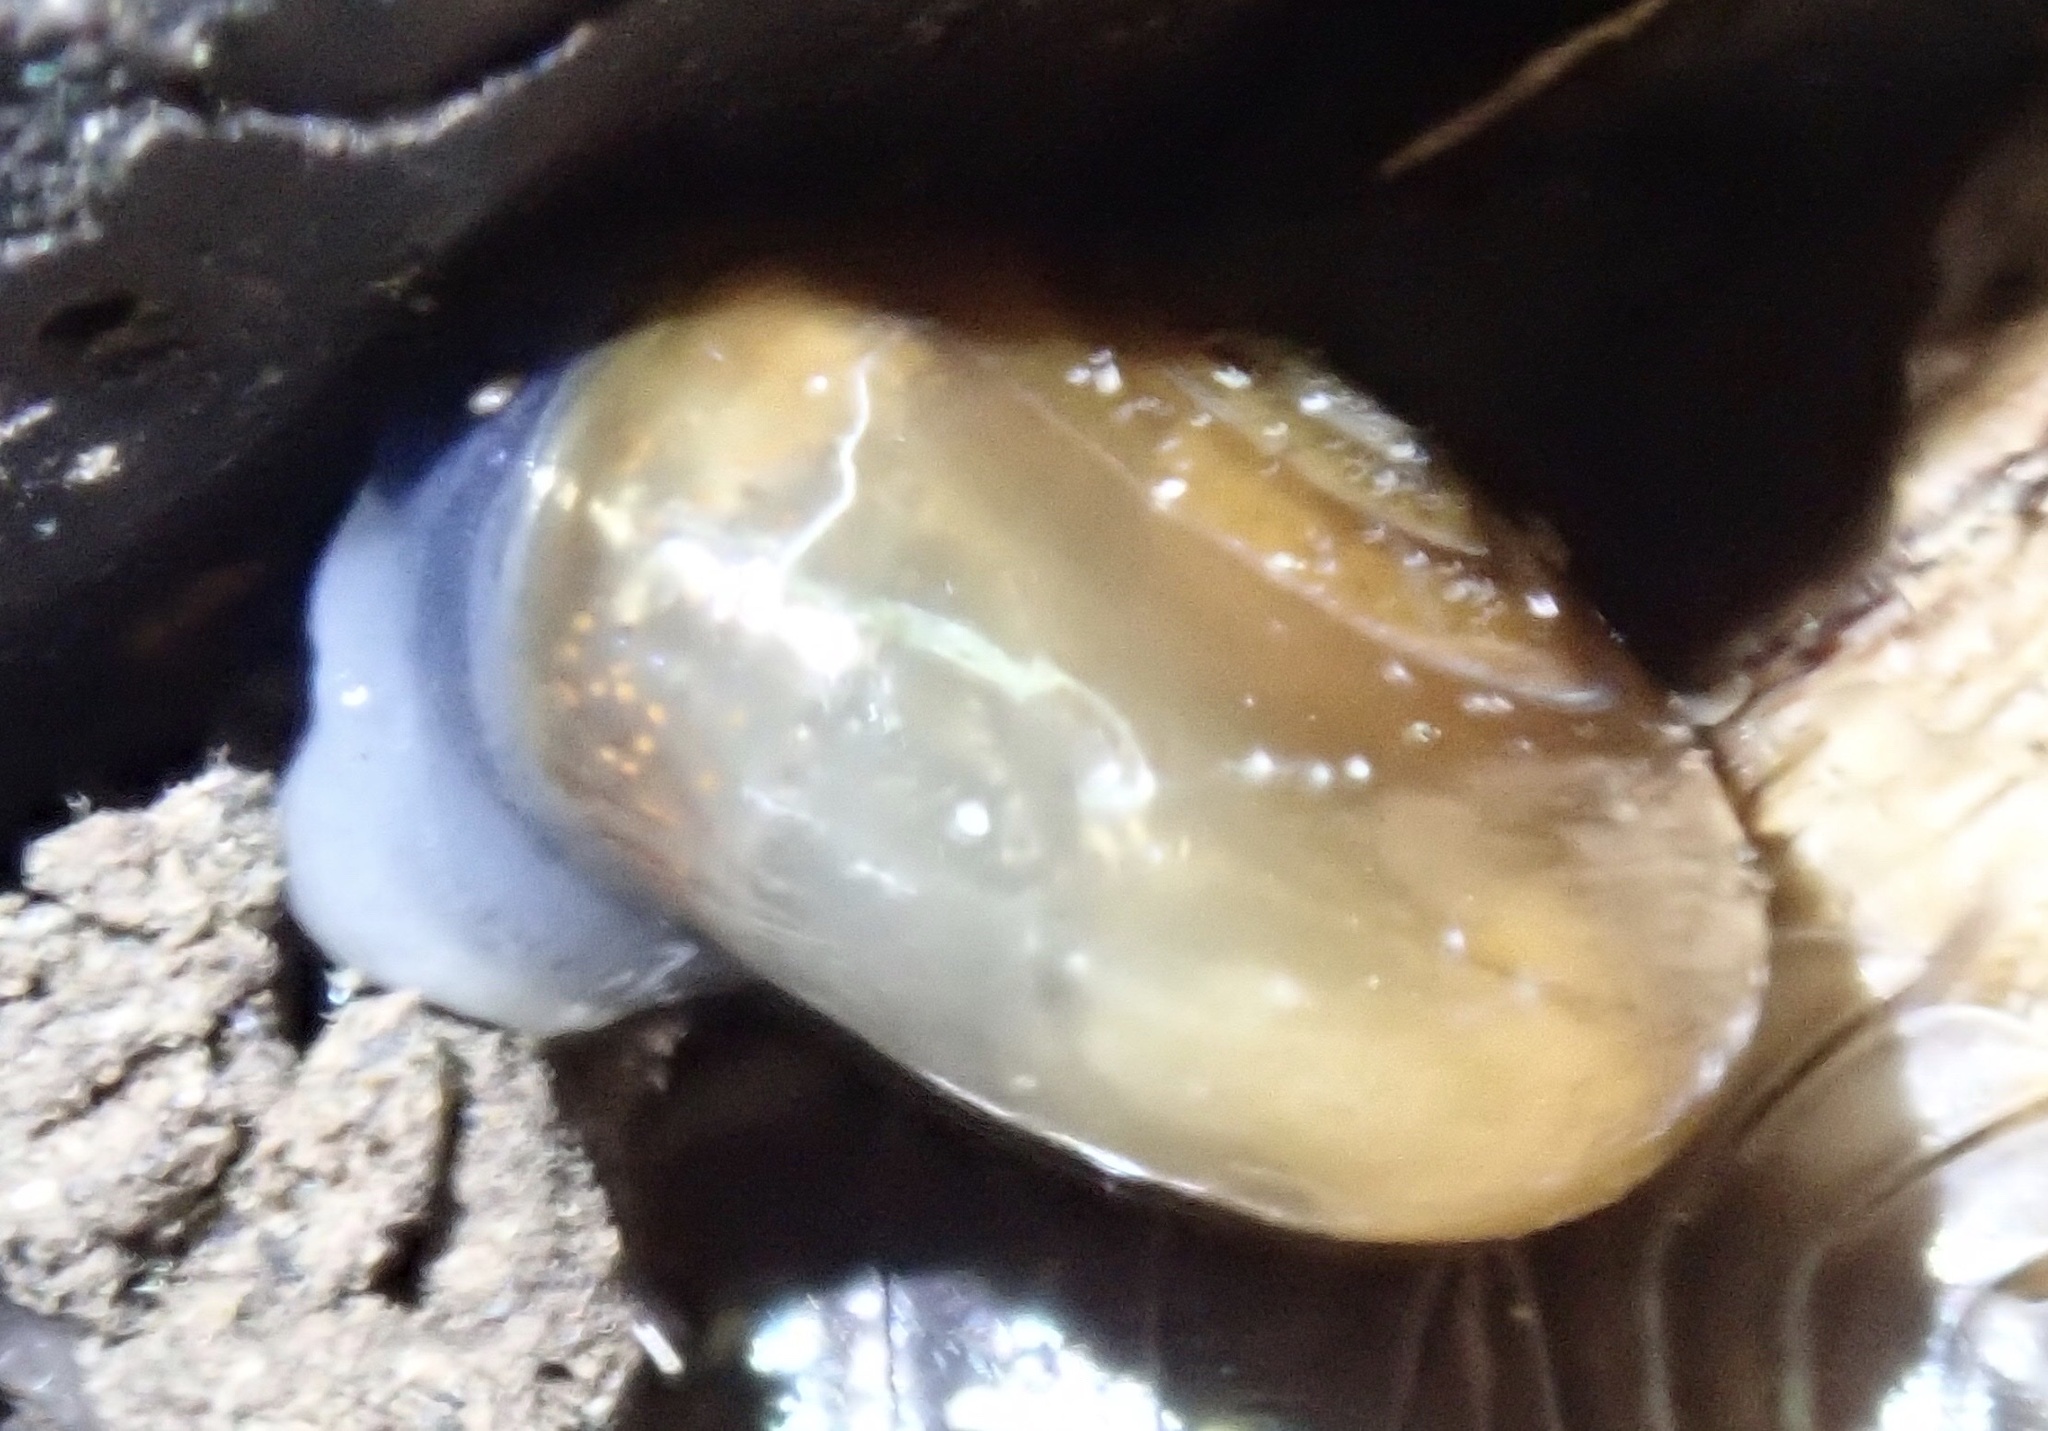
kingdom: Animalia
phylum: Mollusca
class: Gastropoda
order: Stylommatophora
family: Oxychilidae
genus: Oxychilus
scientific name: Oxychilus draparnaudi
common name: Draparnaud's glass snail
